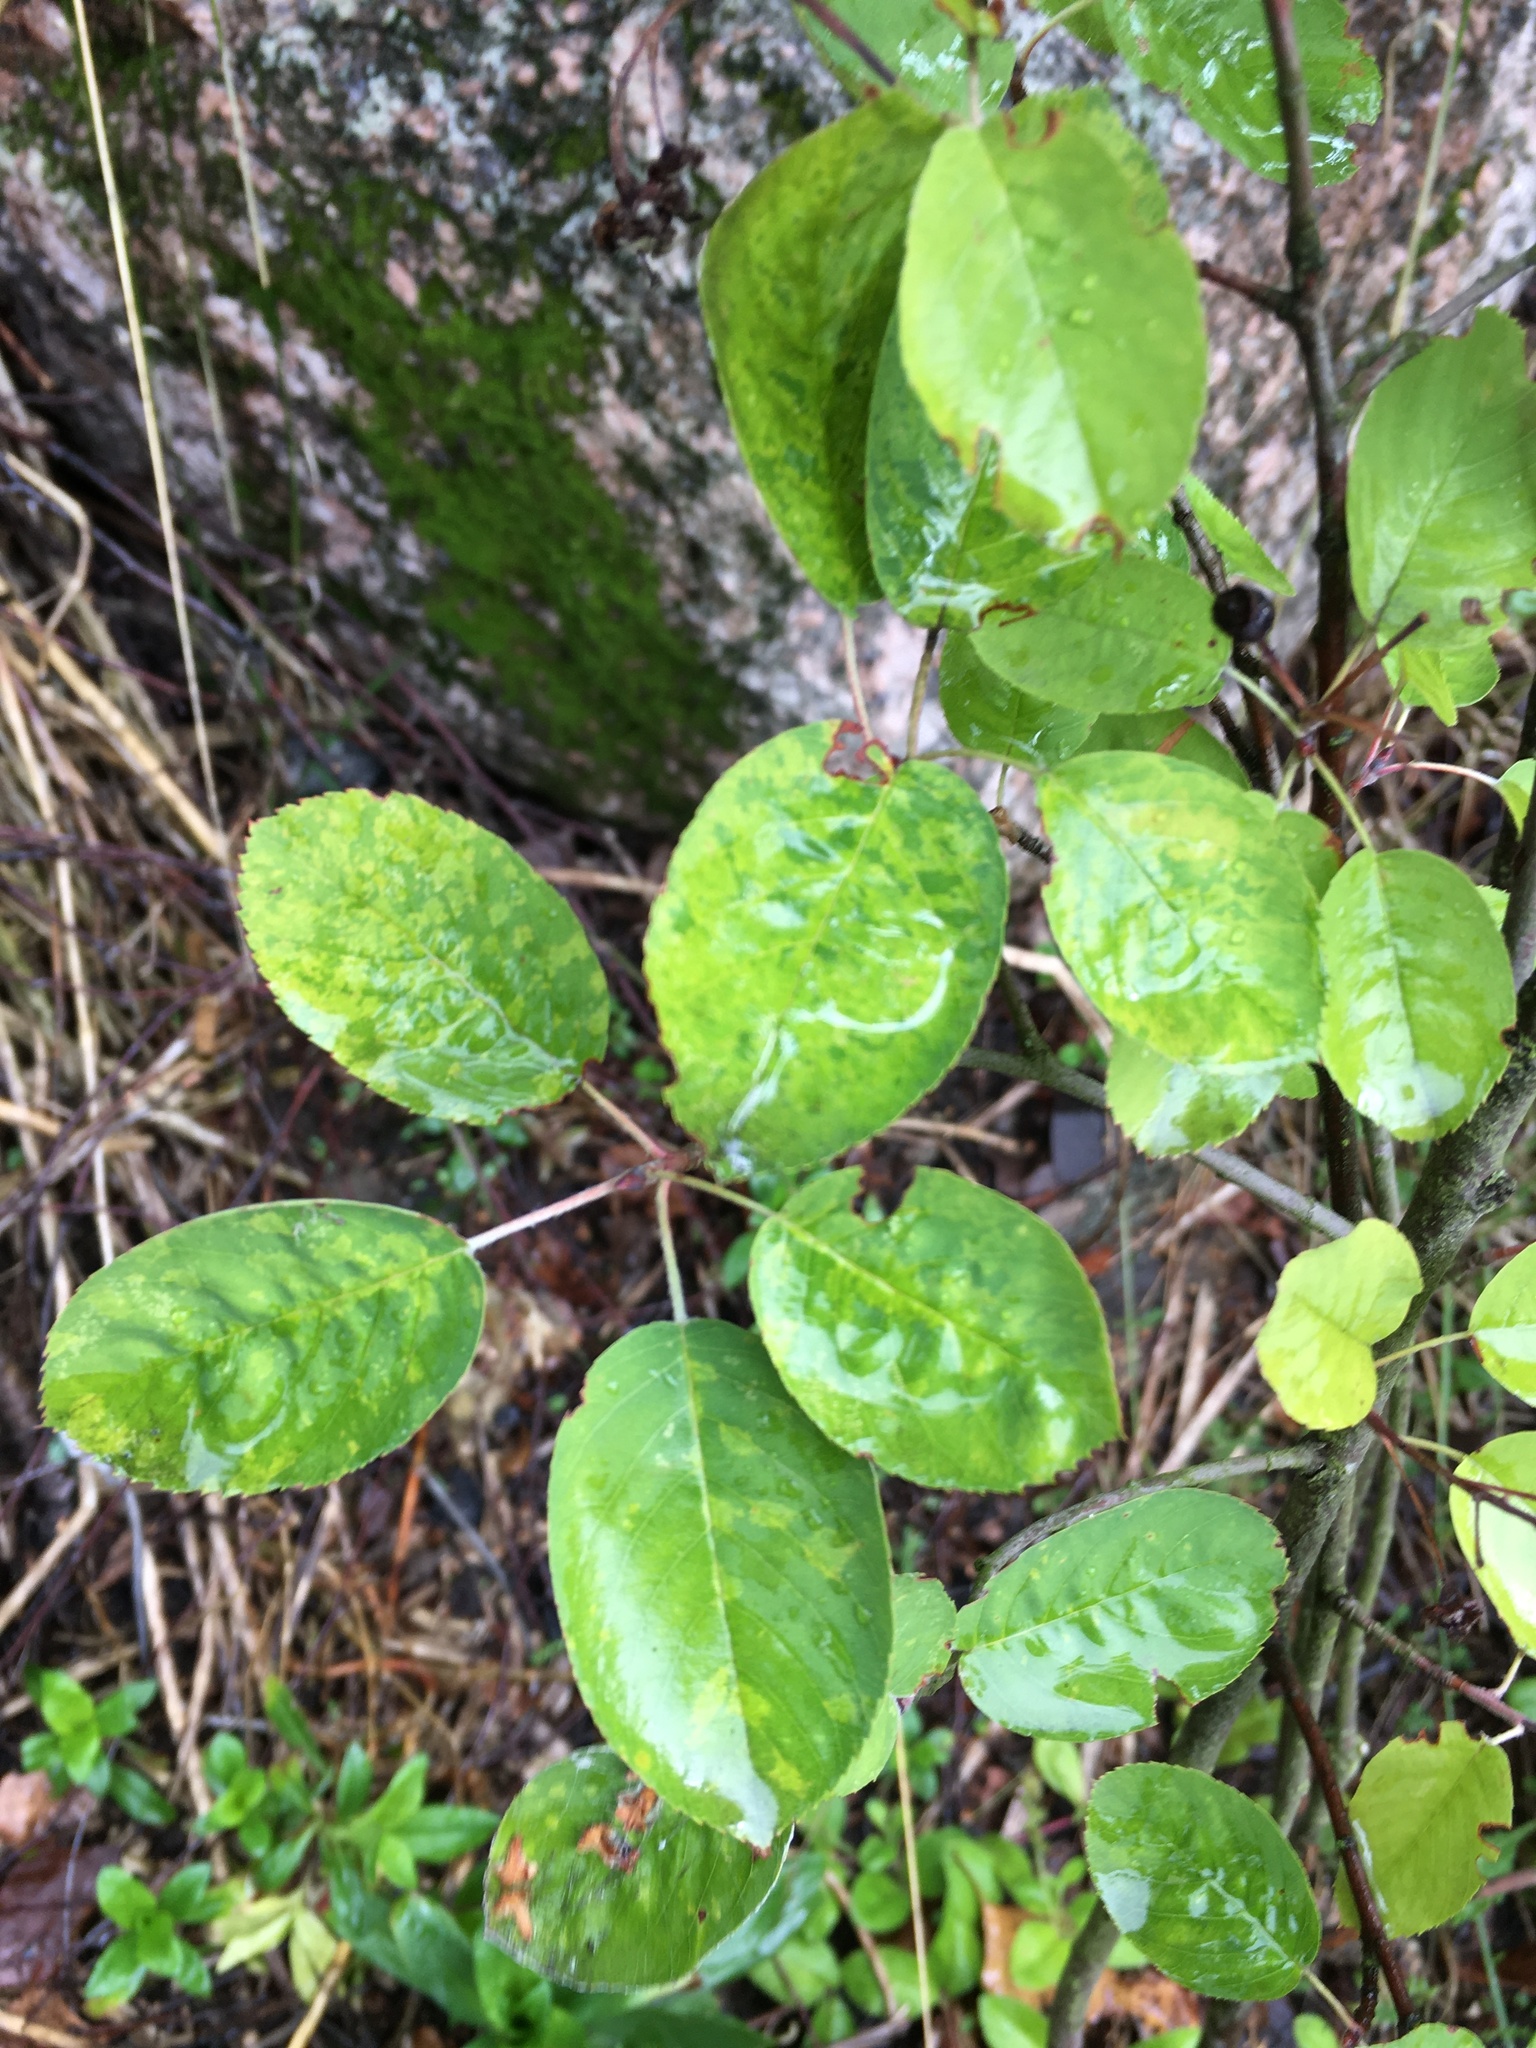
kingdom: Plantae
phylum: Tracheophyta
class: Magnoliopsida
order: Rosales
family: Rosaceae
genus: Amelanchier
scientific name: Amelanchier
